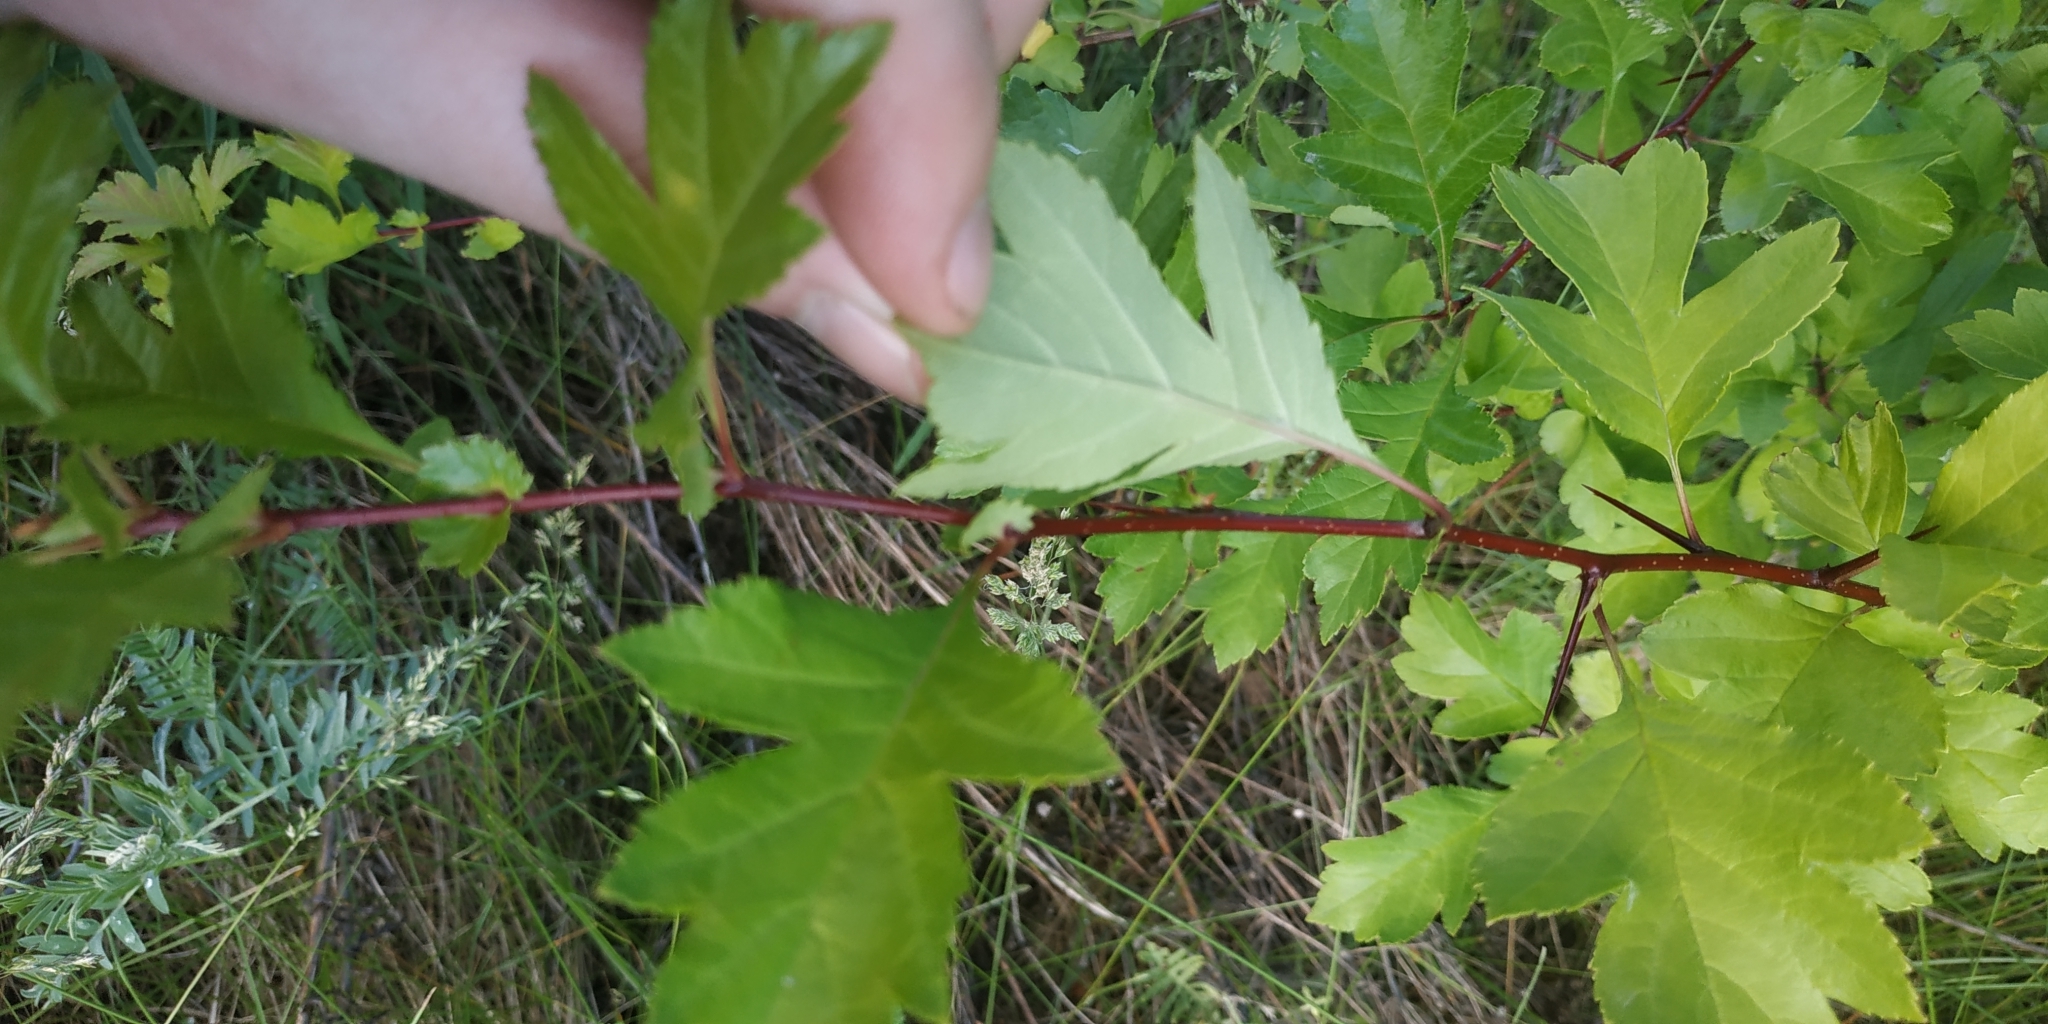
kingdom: Plantae
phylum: Tracheophyta
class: Magnoliopsida
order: Rosales
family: Rosaceae
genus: Crataegus
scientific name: Crataegus sanguinea
